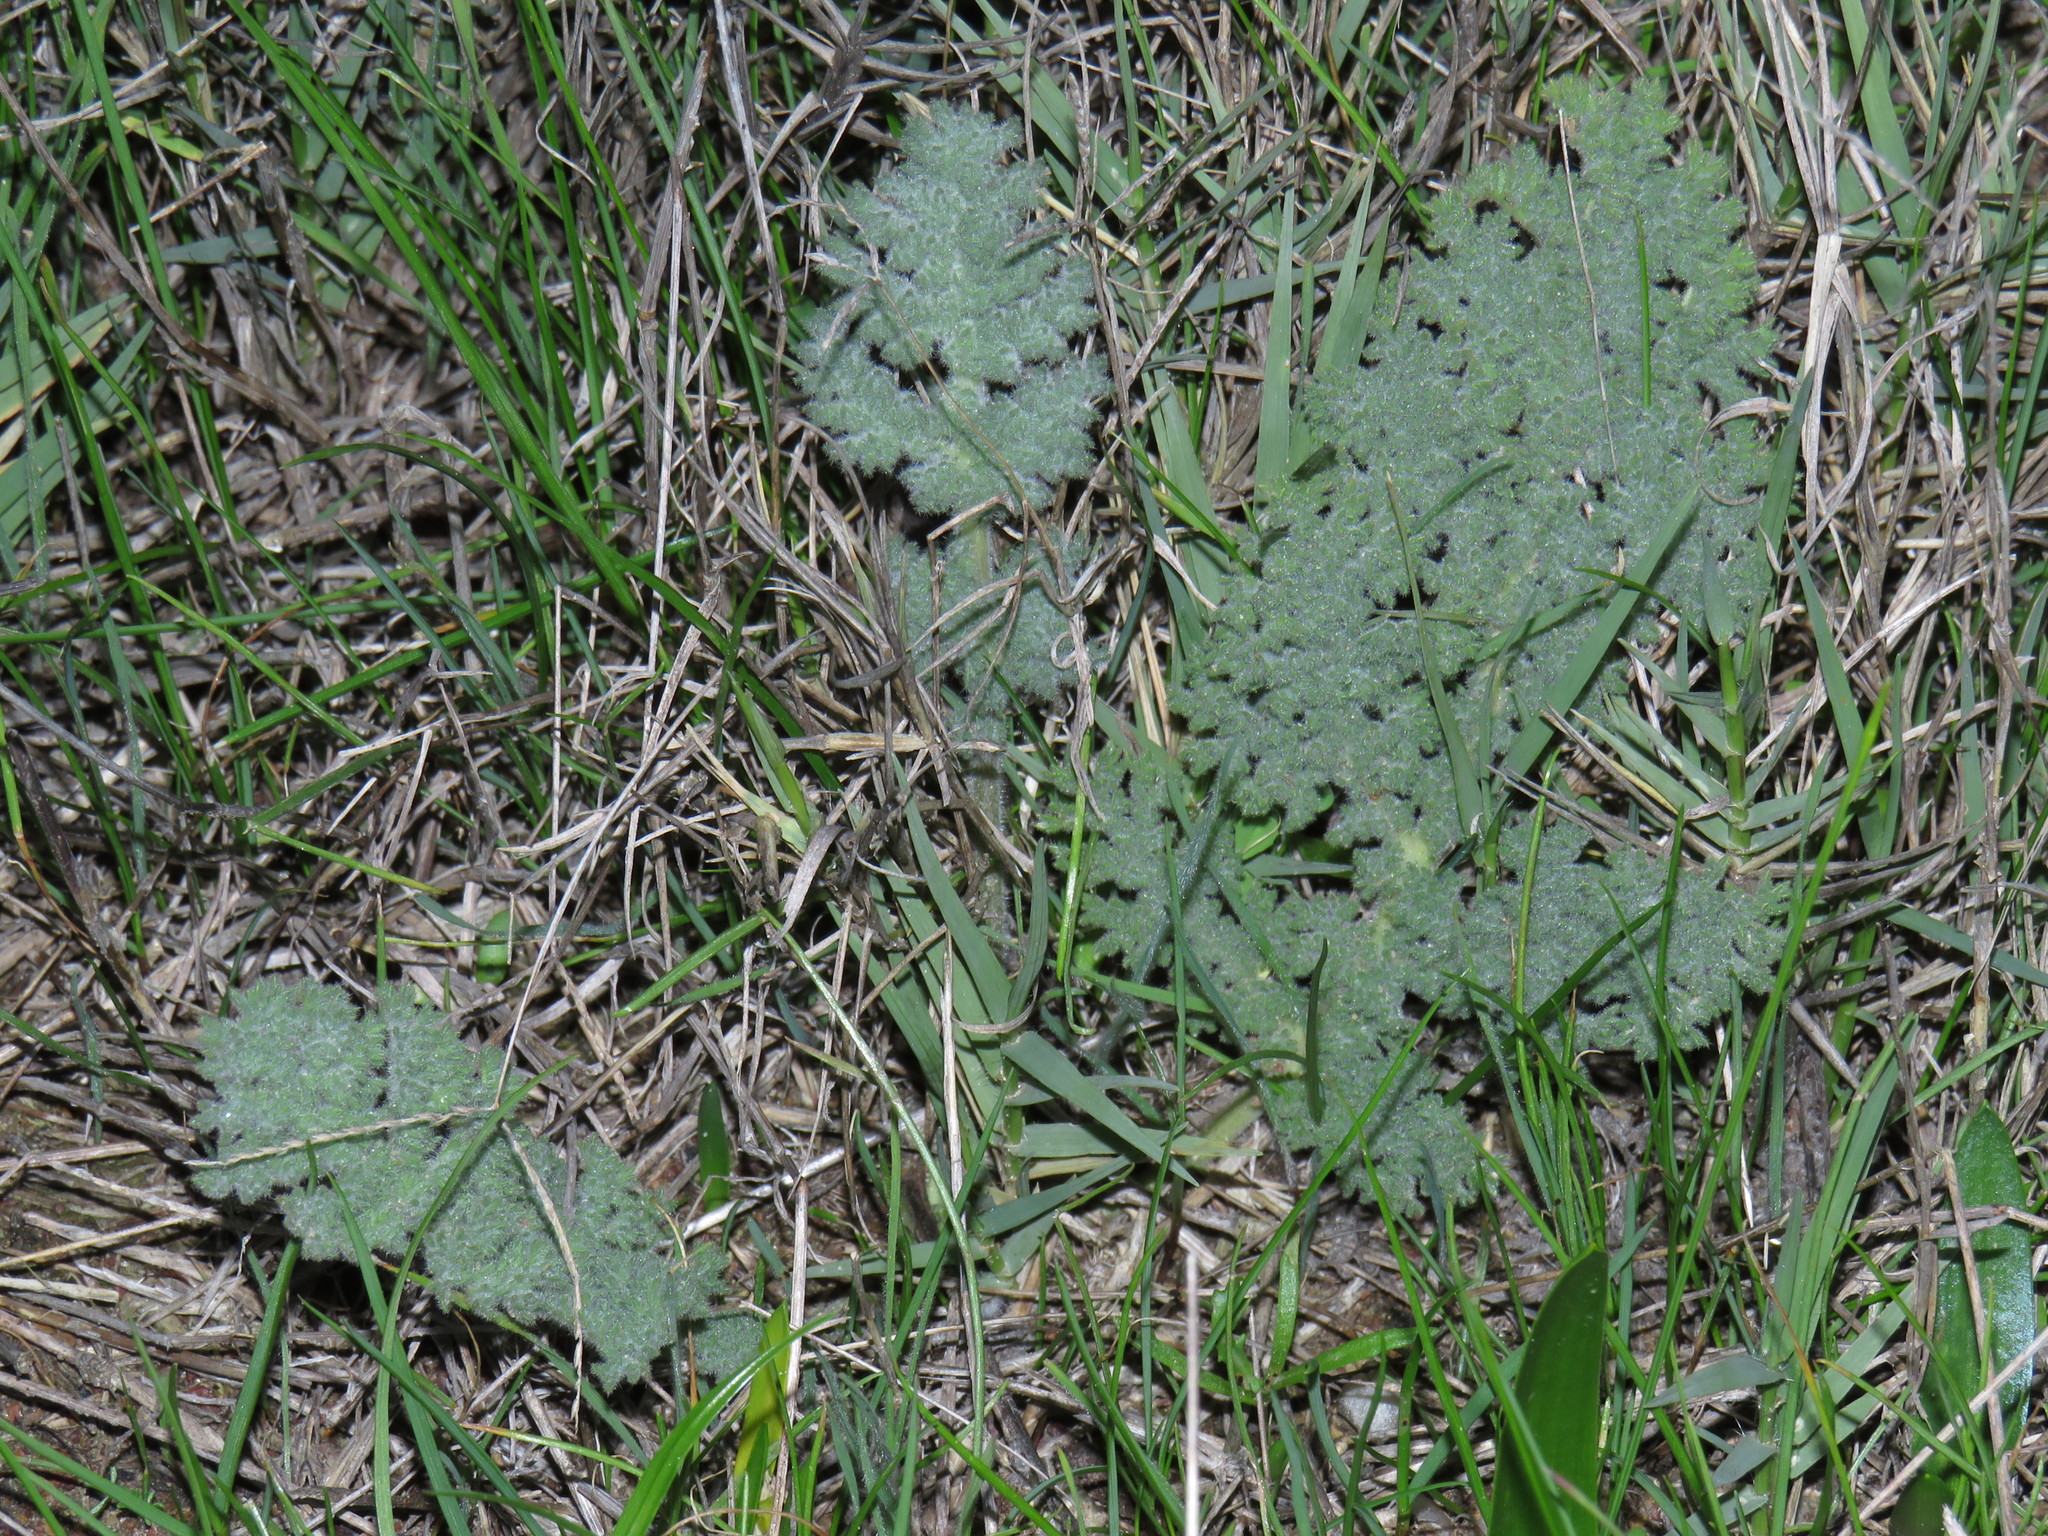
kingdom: Plantae
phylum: Tracheophyta
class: Magnoliopsida
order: Geraniales
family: Geraniaceae
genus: Pelargonium
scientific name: Pelargonium triste
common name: Night-scent pelargonium
